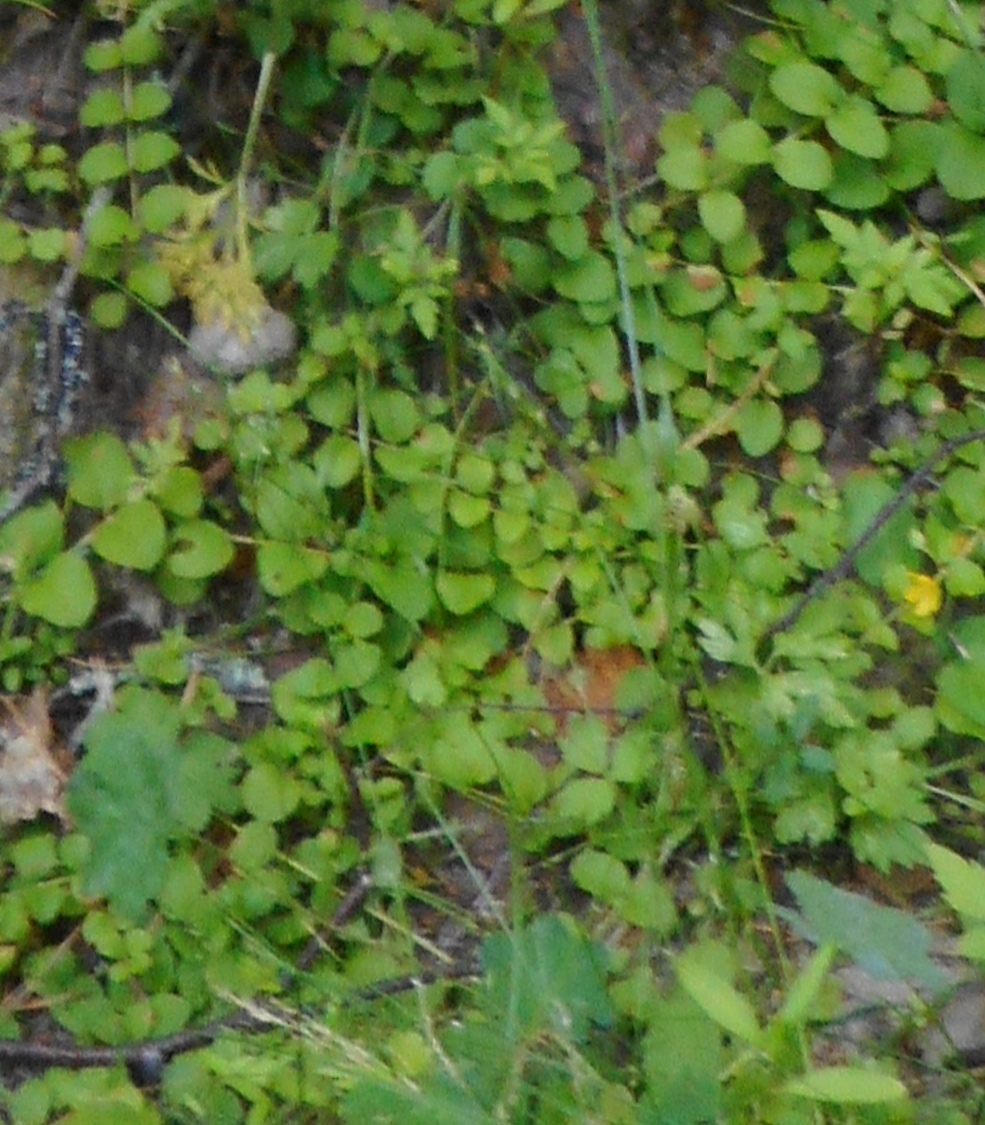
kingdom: Plantae
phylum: Tracheophyta
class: Magnoliopsida
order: Ericales
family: Primulaceae
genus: Lysimachia
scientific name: Lysimachia nummularia
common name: Moneywort
